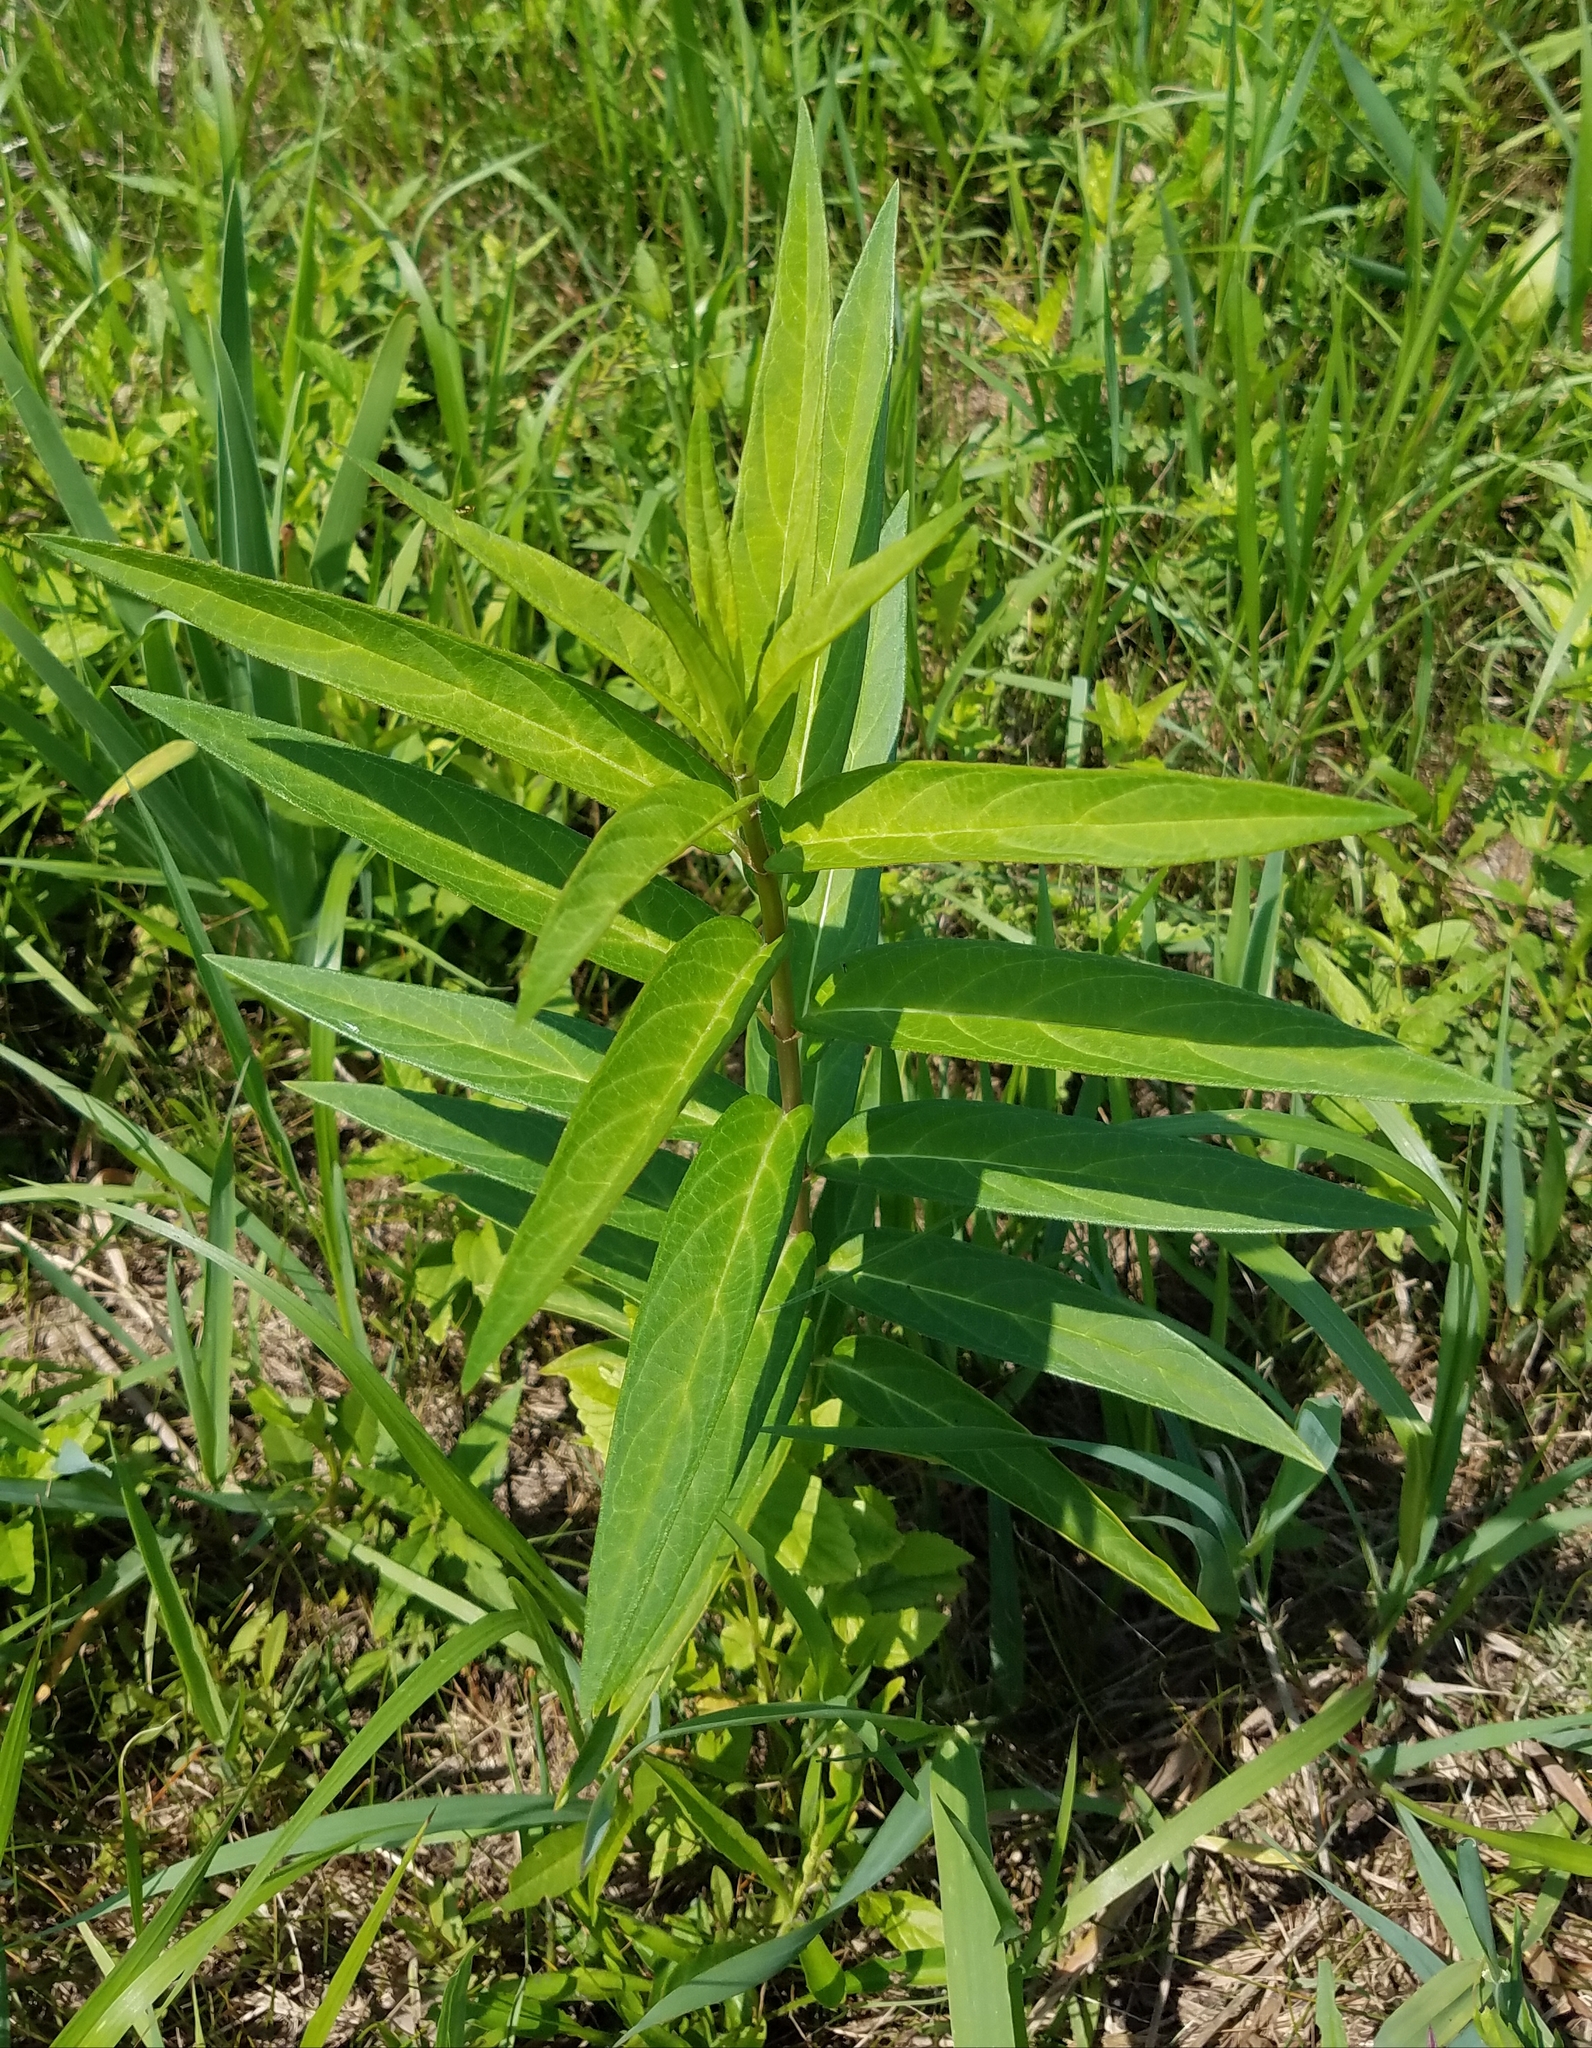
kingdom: Plantae
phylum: Tracheophyta
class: Magnoliopsida
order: Gentianales
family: Apocynaceae
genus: Asclepias
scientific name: Asclepias incarnata
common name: Swamp milkweed
